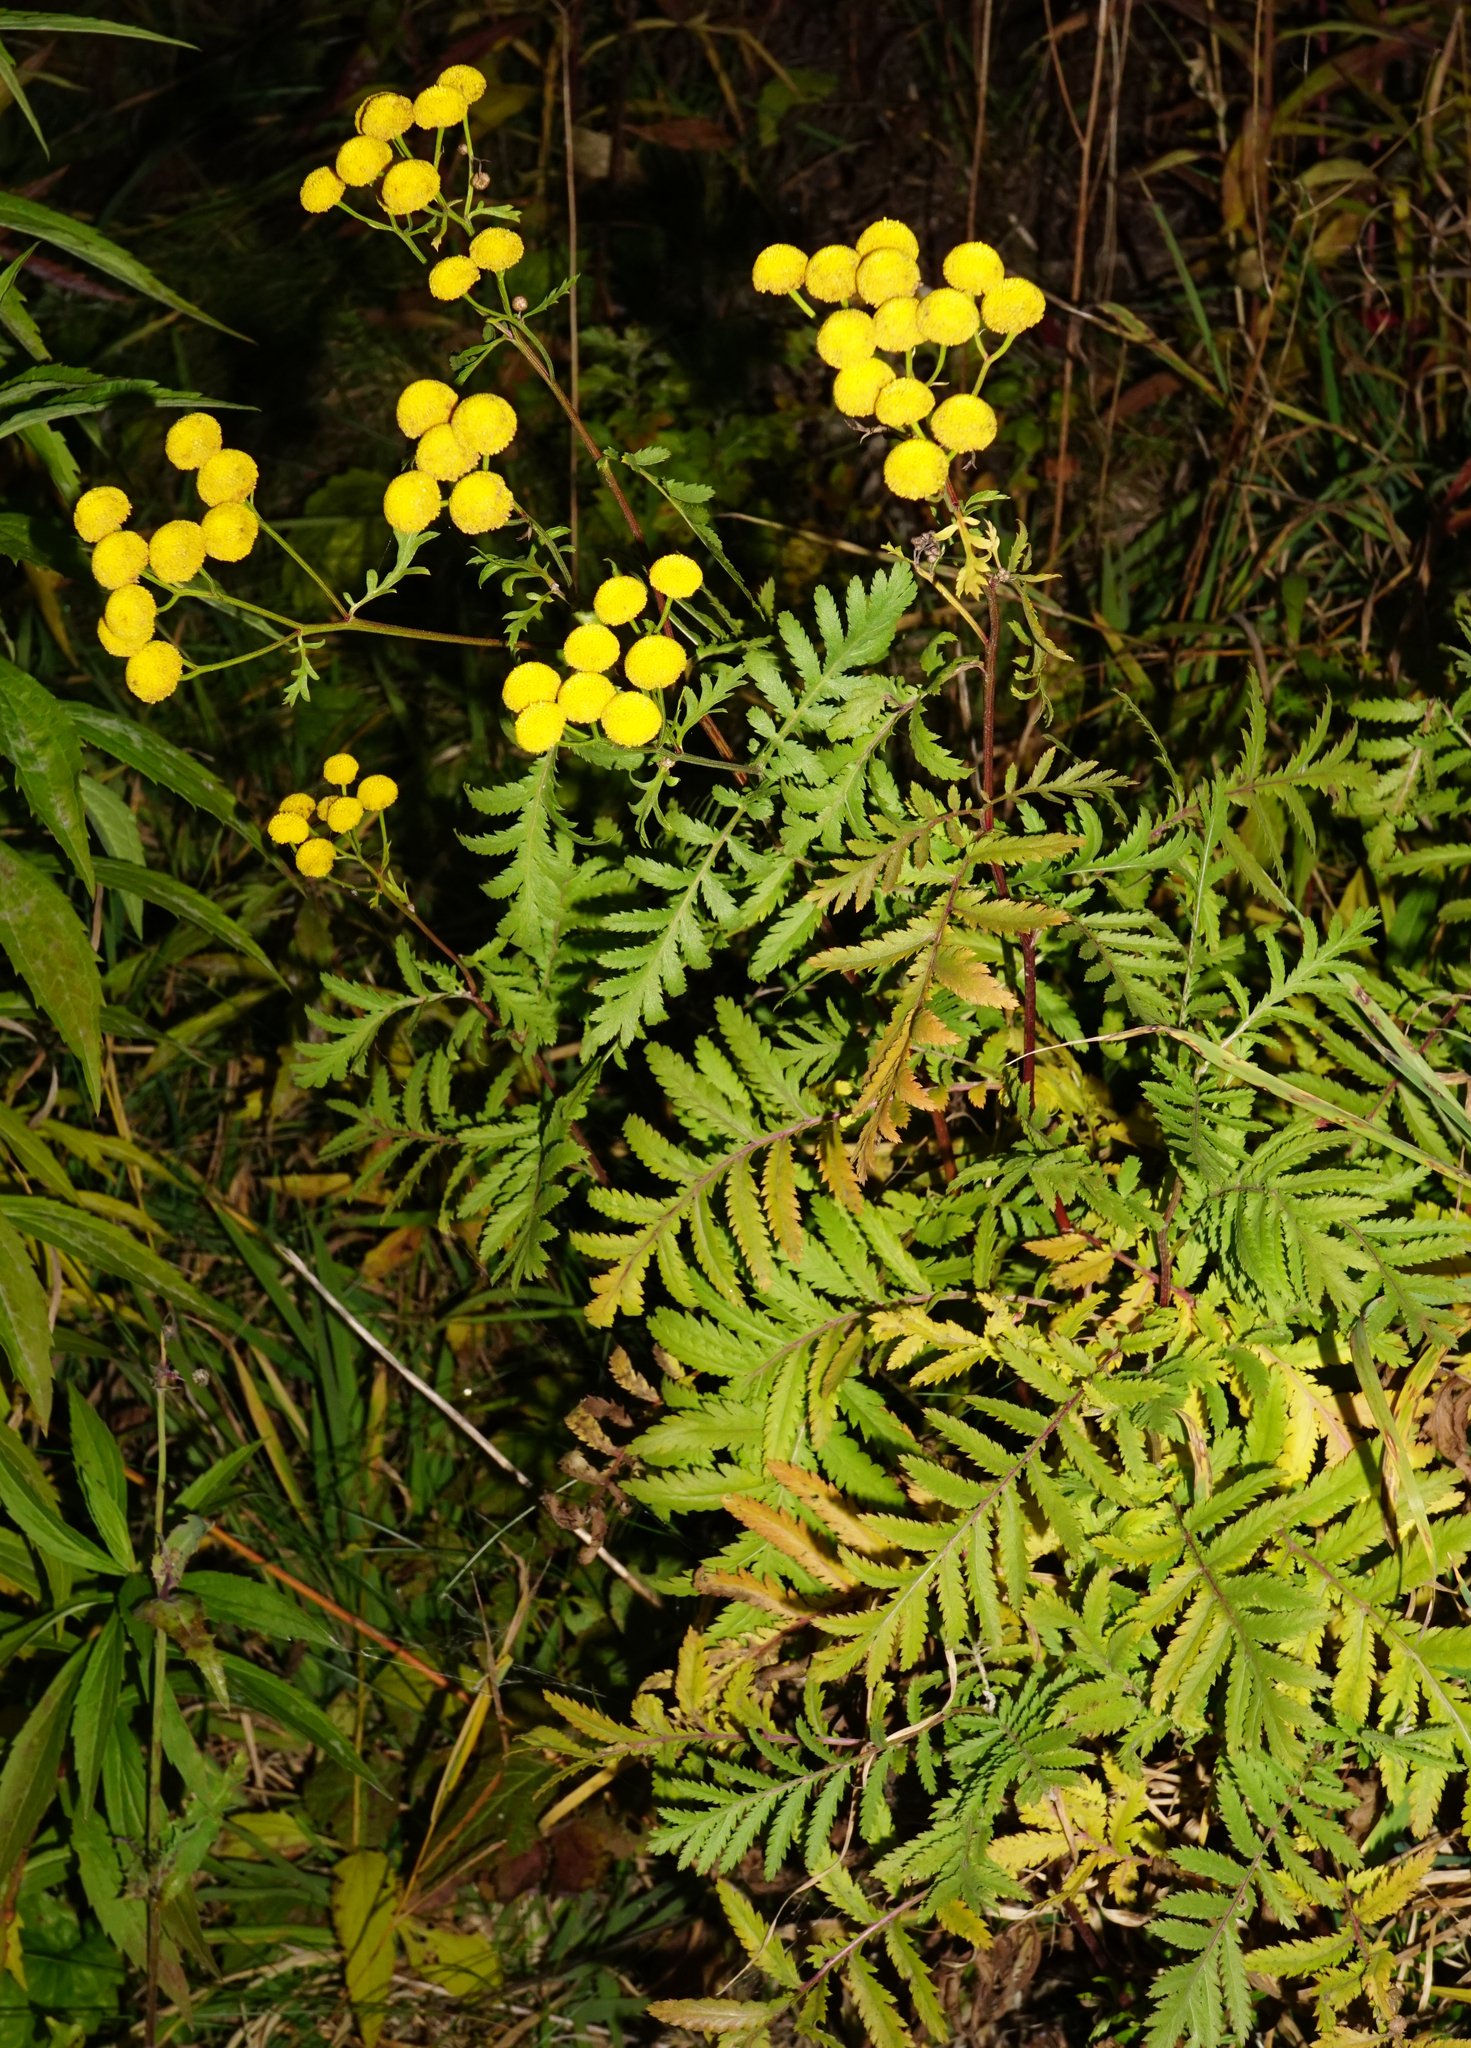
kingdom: Plantae
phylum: Tracheophyta
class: Magnoliopsida
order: Asterales
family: Asteraceae
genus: Tanacetum
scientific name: Tanacetum vulgare
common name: Common tansy
